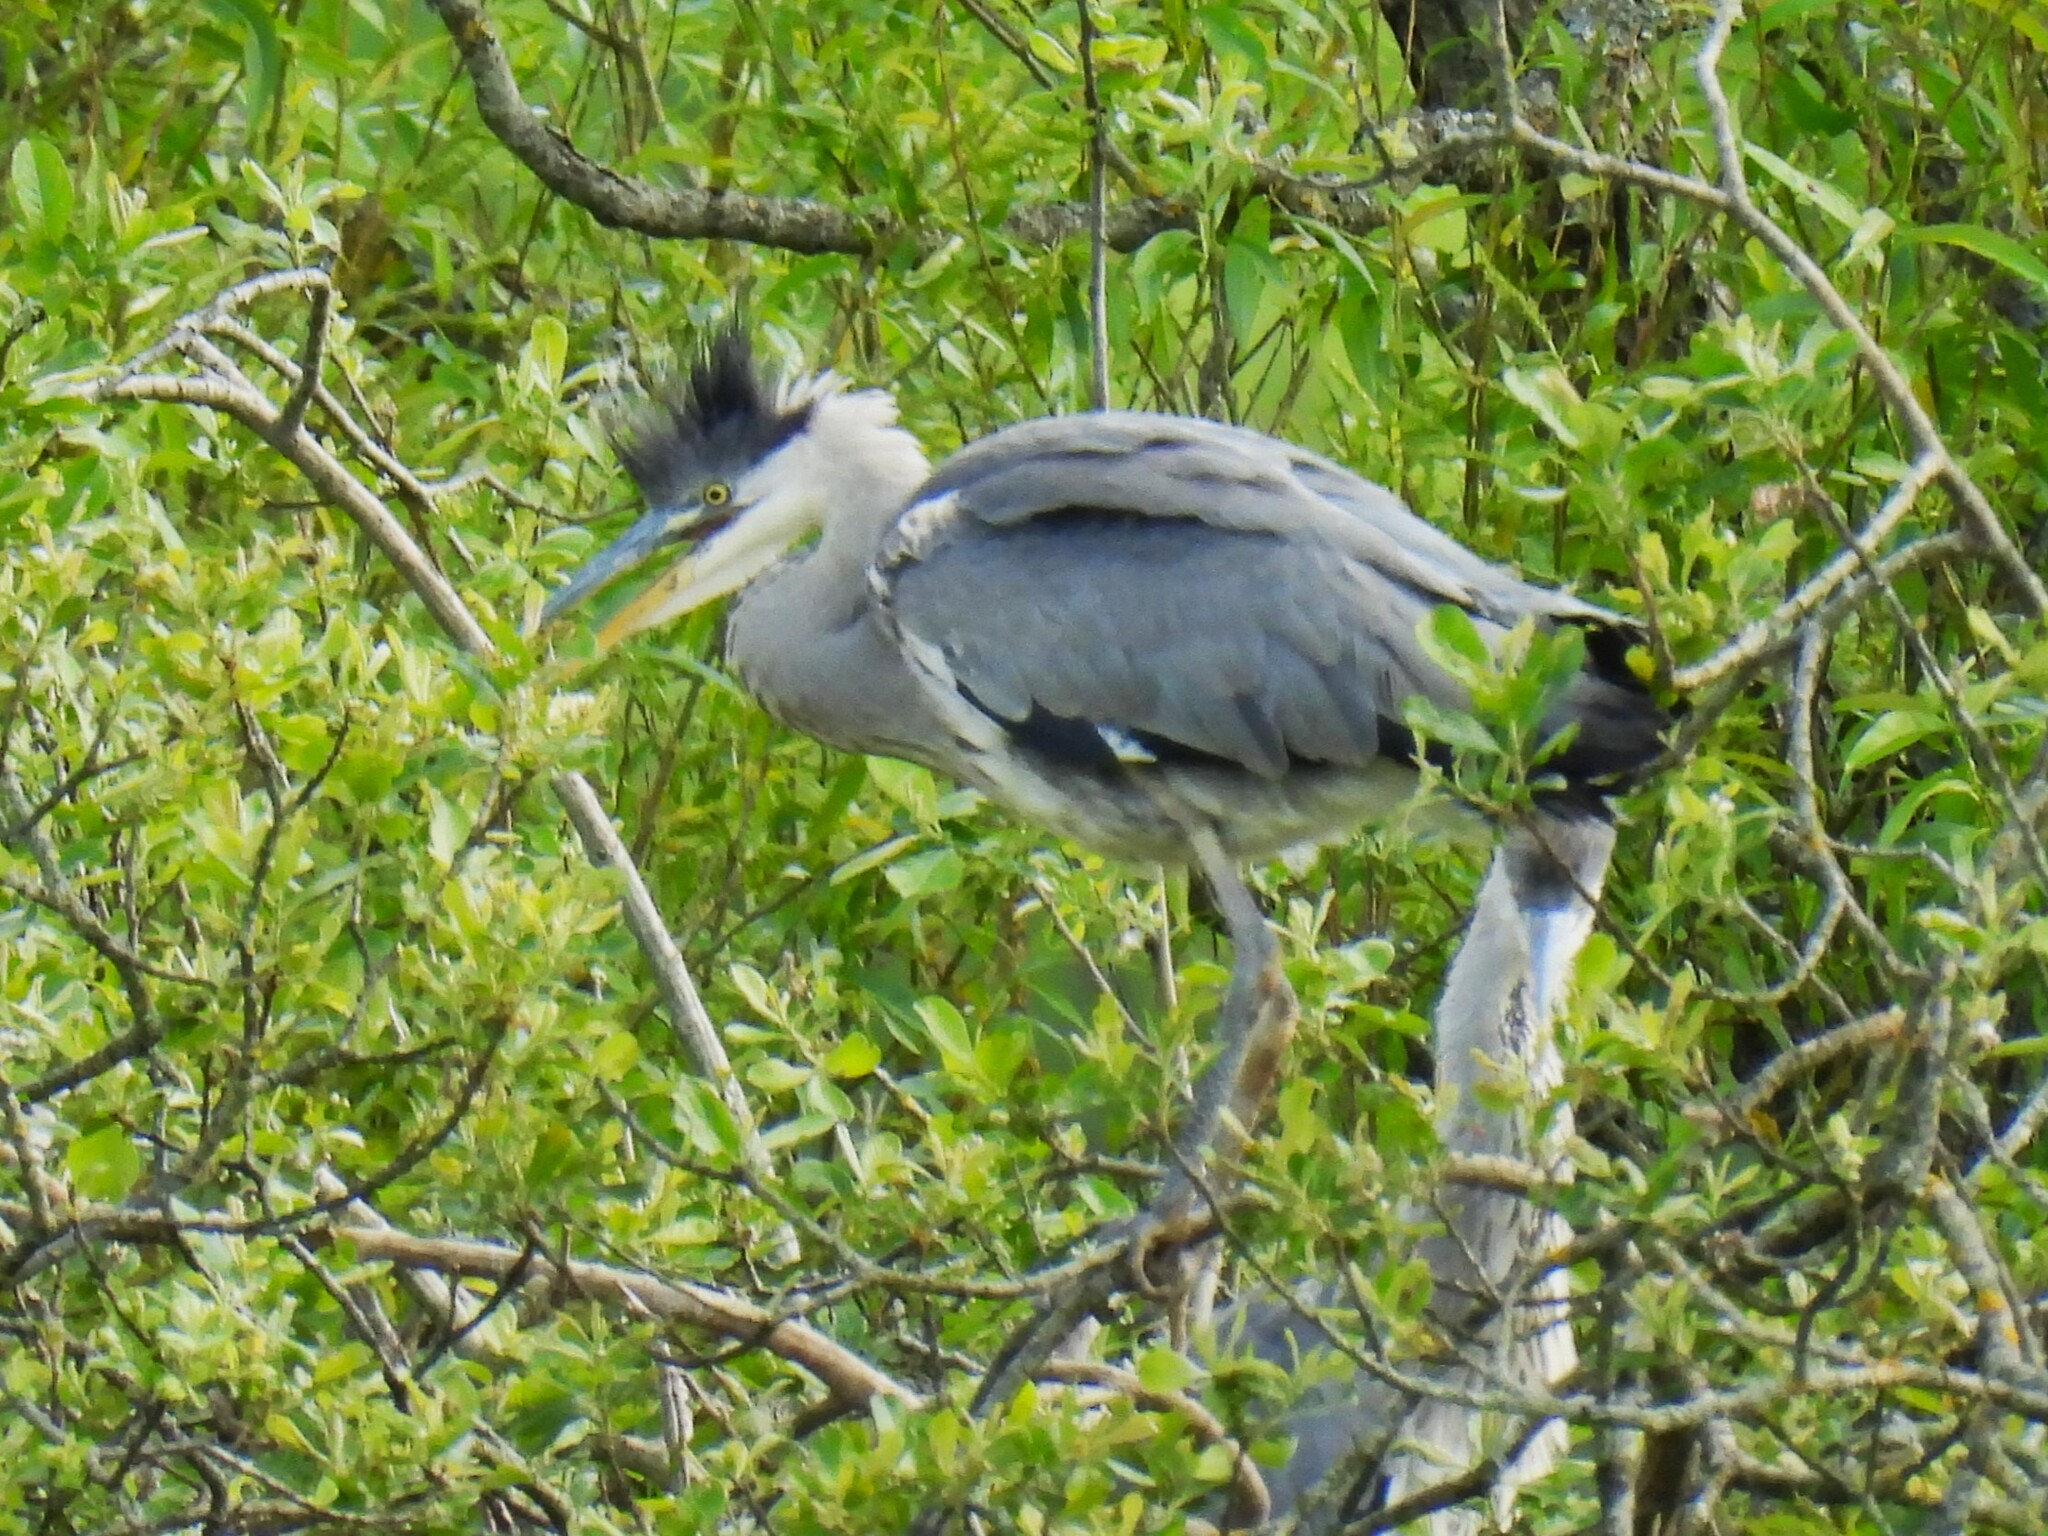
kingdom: Animalia
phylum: Chordata
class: Aves
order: Pelecaniformes
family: Ardeidae
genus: Ardea
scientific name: Ardea cinerea
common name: Grey heron
